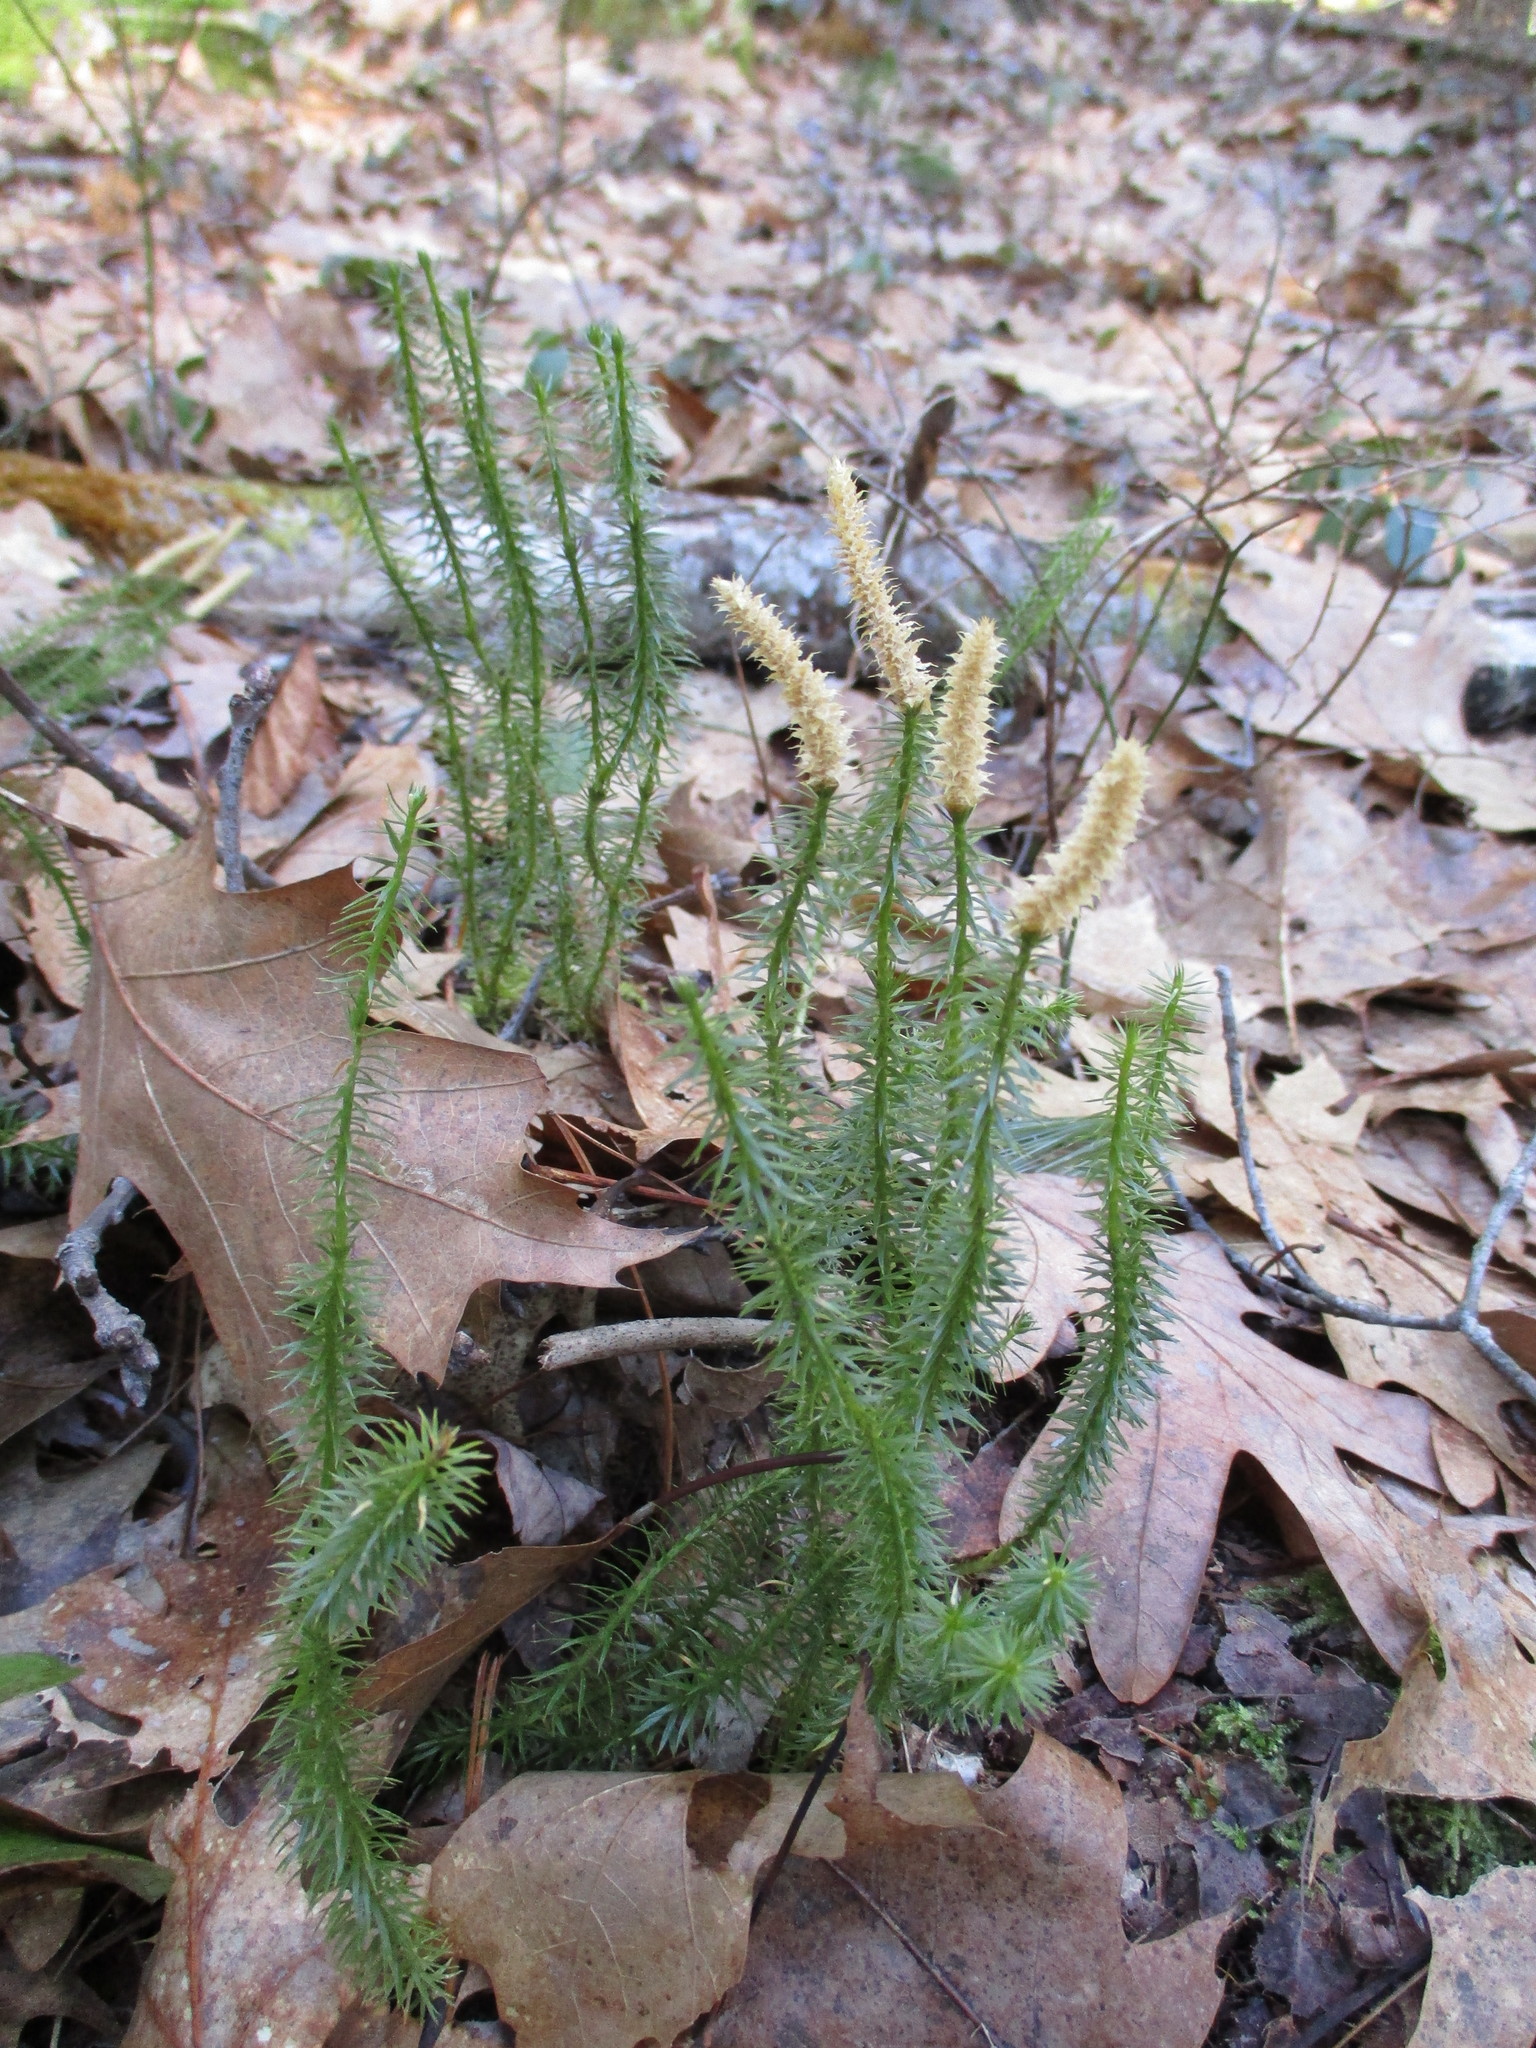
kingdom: Plantae
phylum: Tracheophyta
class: Lycopodiopsida
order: Lycopodiales
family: Lycopodiaceae
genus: Spinulum
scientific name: Spinulum annotinum
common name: Interrupted club-moss
